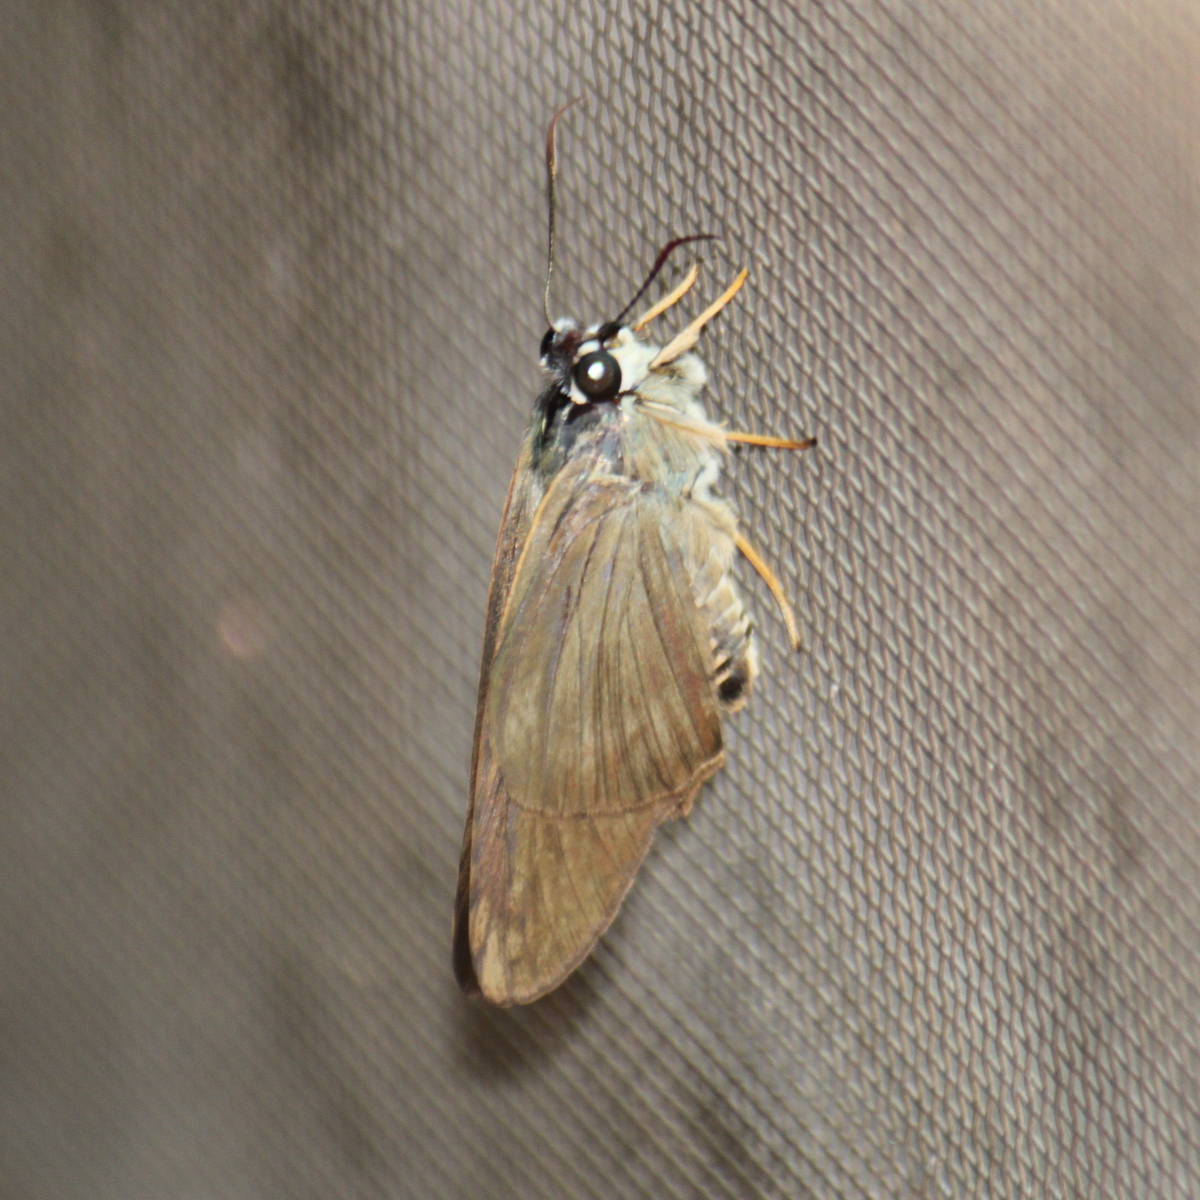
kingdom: Animalia
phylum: Arthropoda
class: Insecta
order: Lepidoptera
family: Hesperiidae
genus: Badamia
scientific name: Badamia exclamationis
